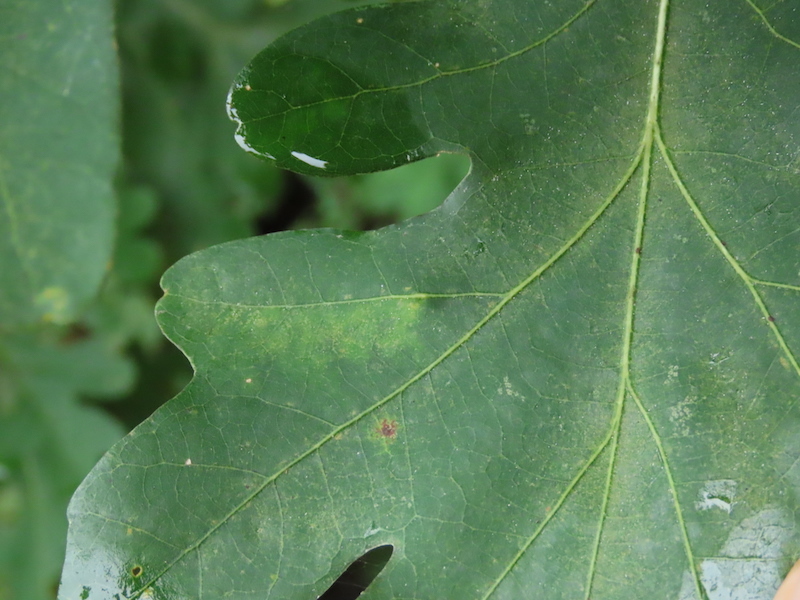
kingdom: Animalia
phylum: Arthropoda
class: Insecta
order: Hymenoptera
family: Cynipidae
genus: Philonix
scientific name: Philonix fulvicollis
